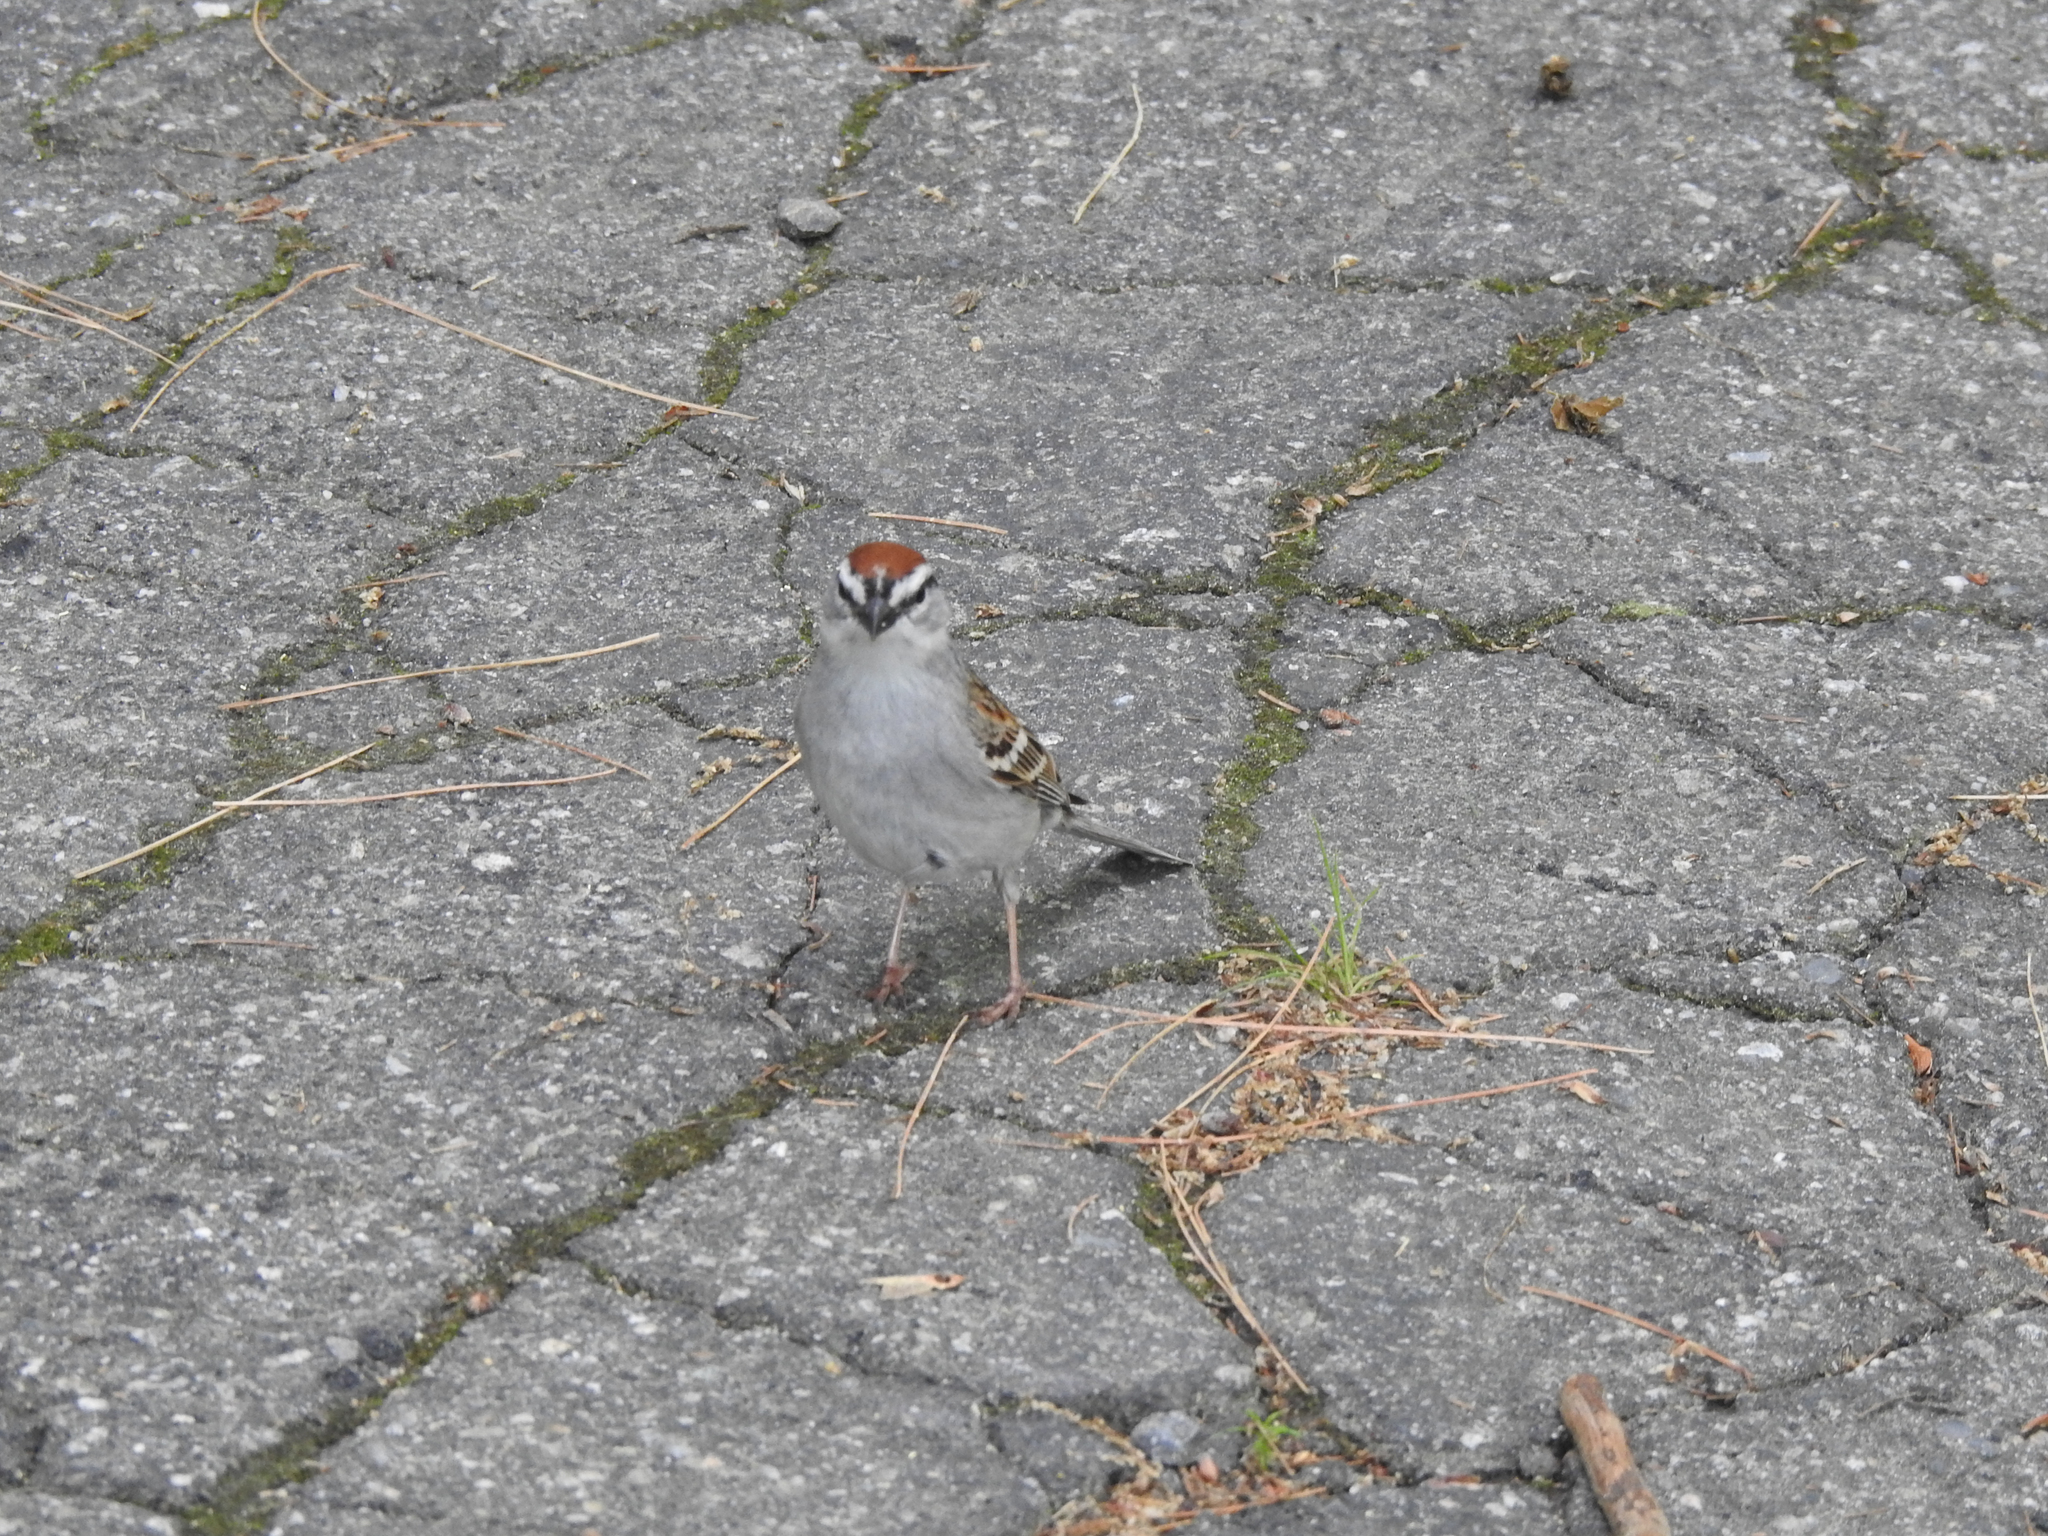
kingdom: Animalia
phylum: Chordata
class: Aves
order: Passeriformes
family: Passerellidae
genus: Spizella
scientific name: Spizella passerina
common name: Chipping sparrow
